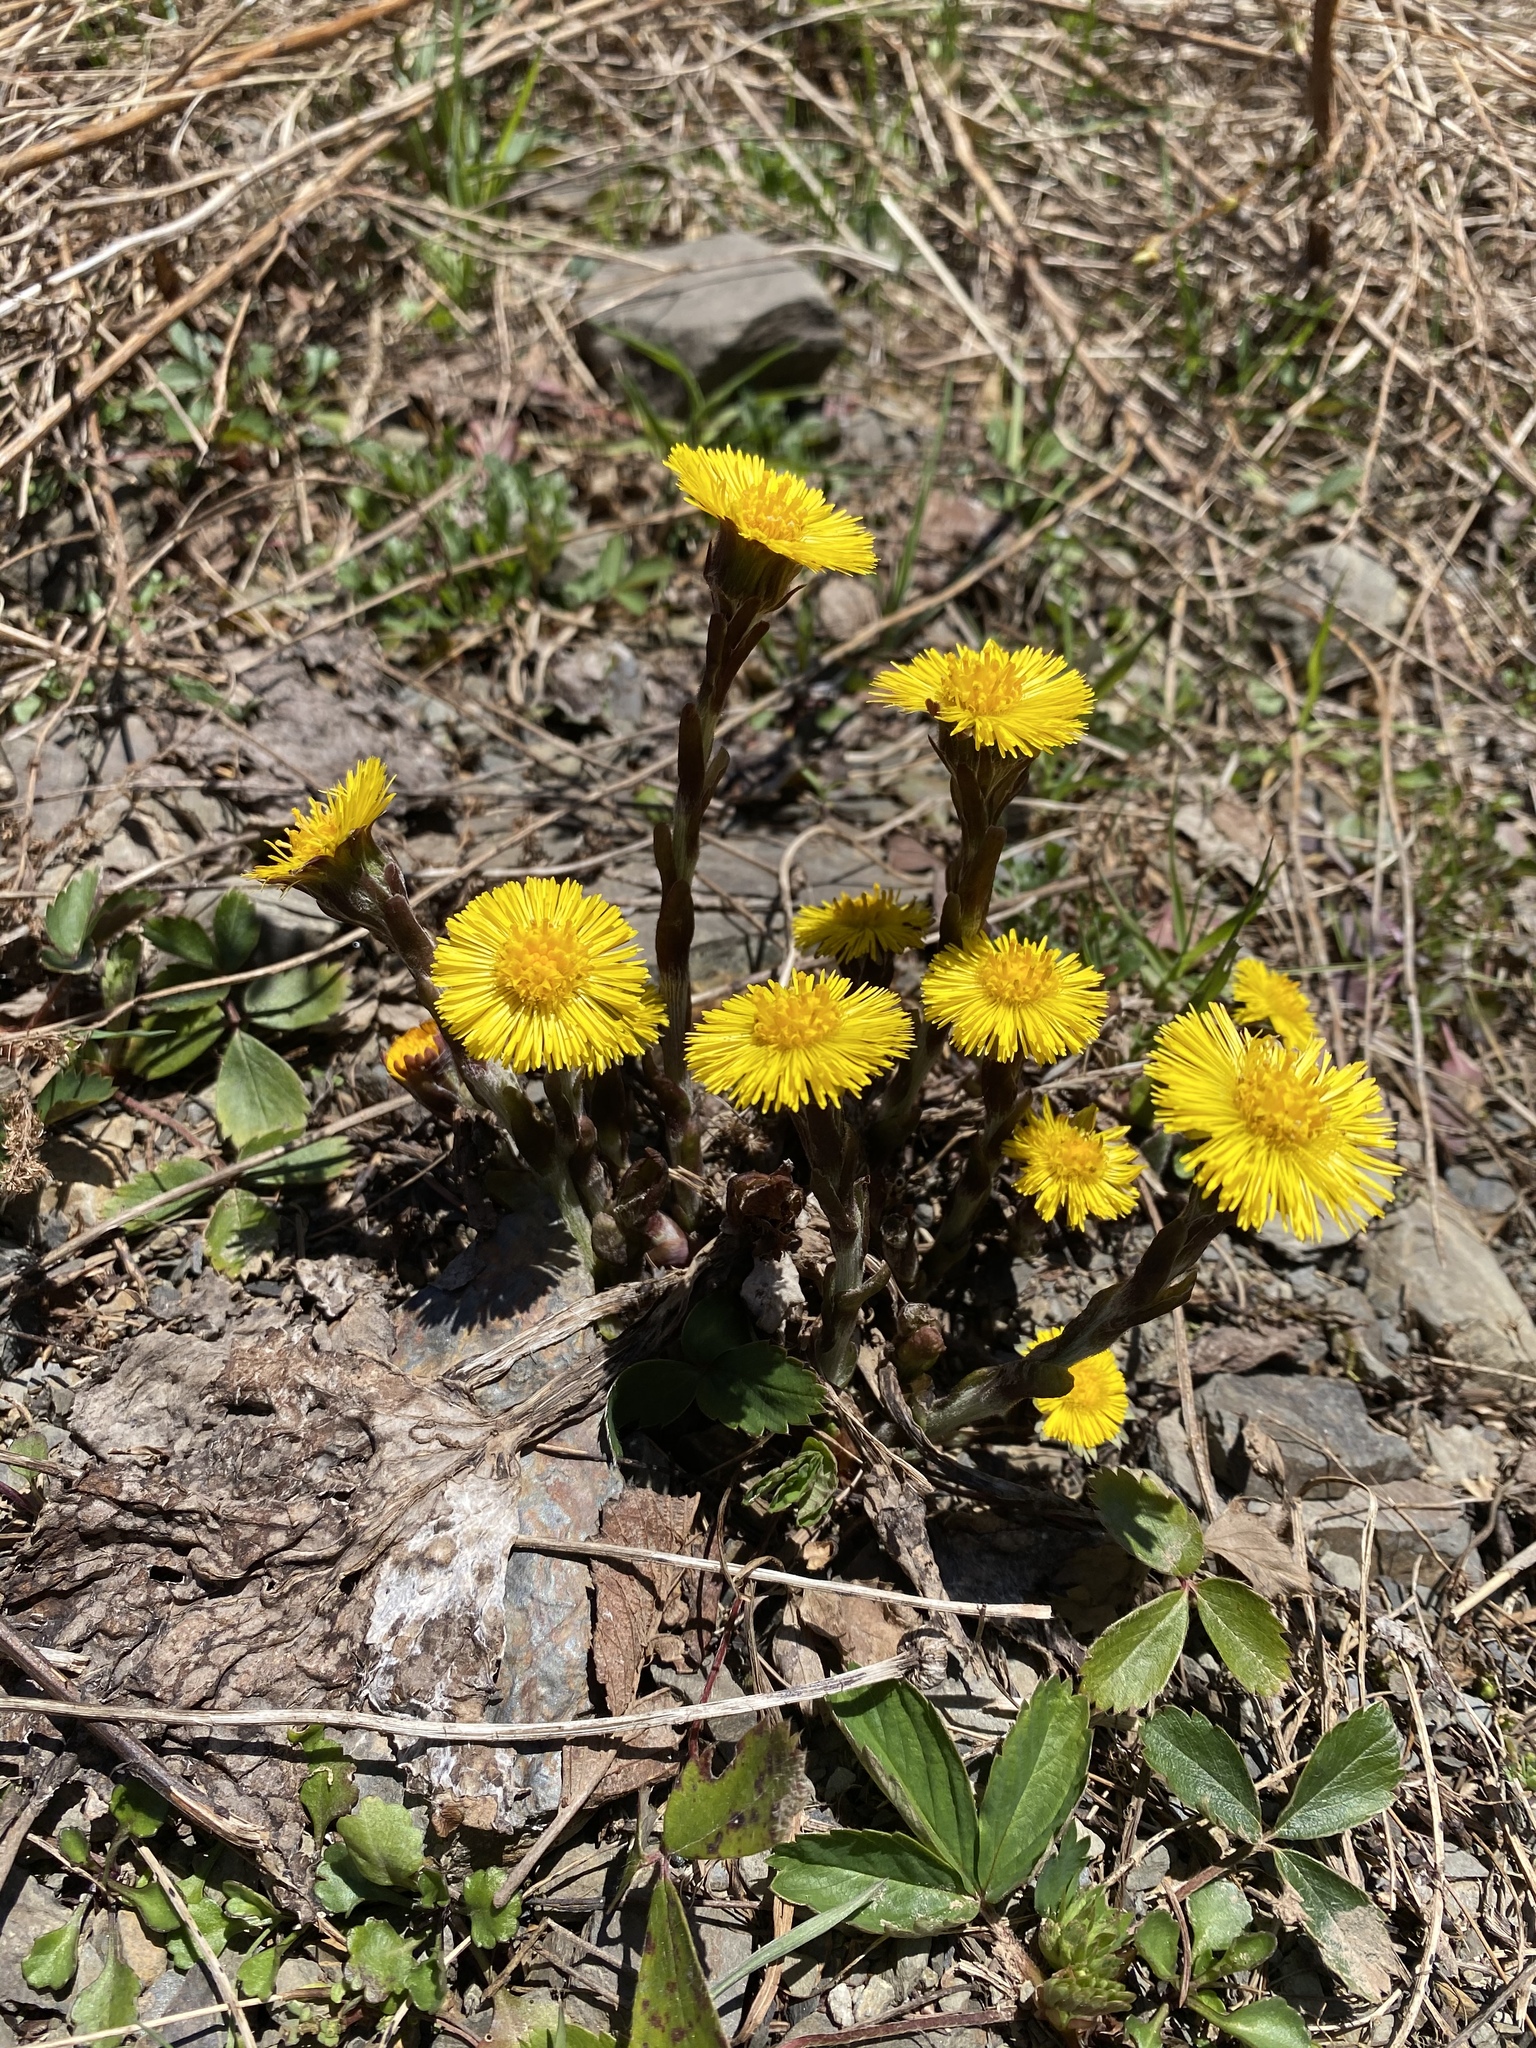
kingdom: Plantae
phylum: Tracheophyta
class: Magnoliopsida
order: Asterales
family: Asteraceae
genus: Tussilago
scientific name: Tussilago farfara
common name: Coltsfoot
